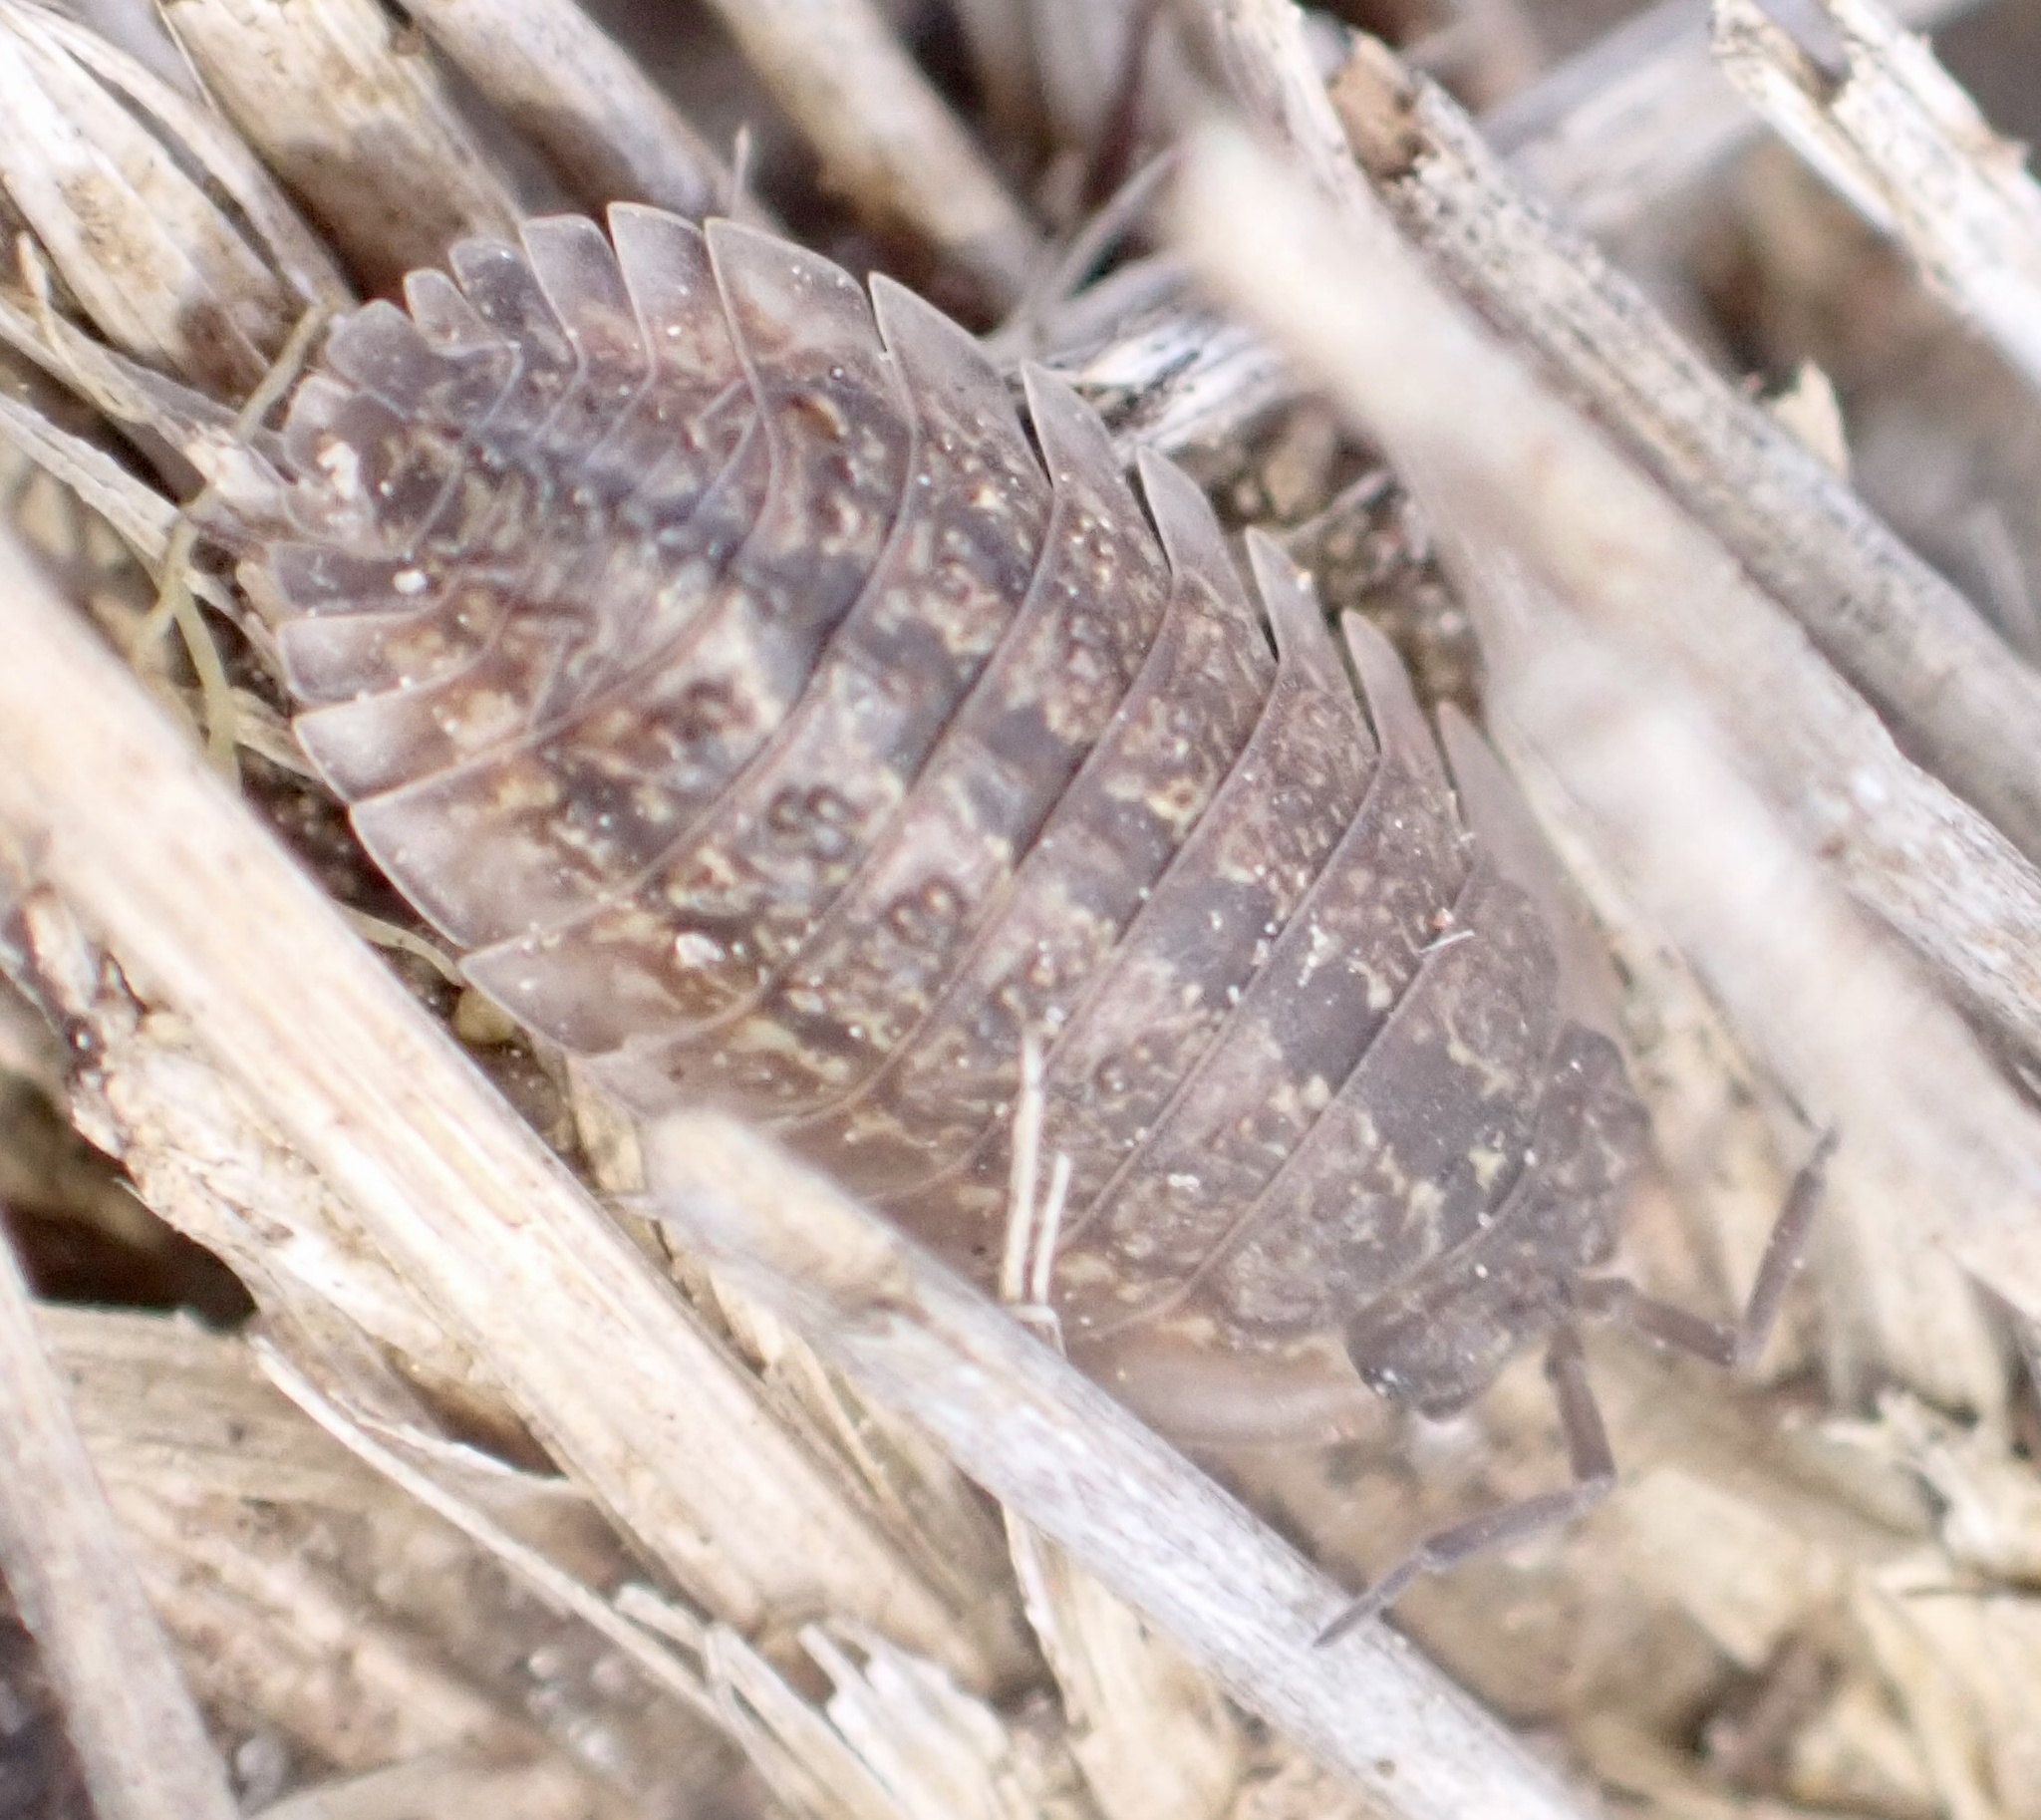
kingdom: Animalia
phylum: Arthropoda
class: Malacostraca
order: Isopoda
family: Armadillidae
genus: Australiodillo
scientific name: Australiodillo bifrons
